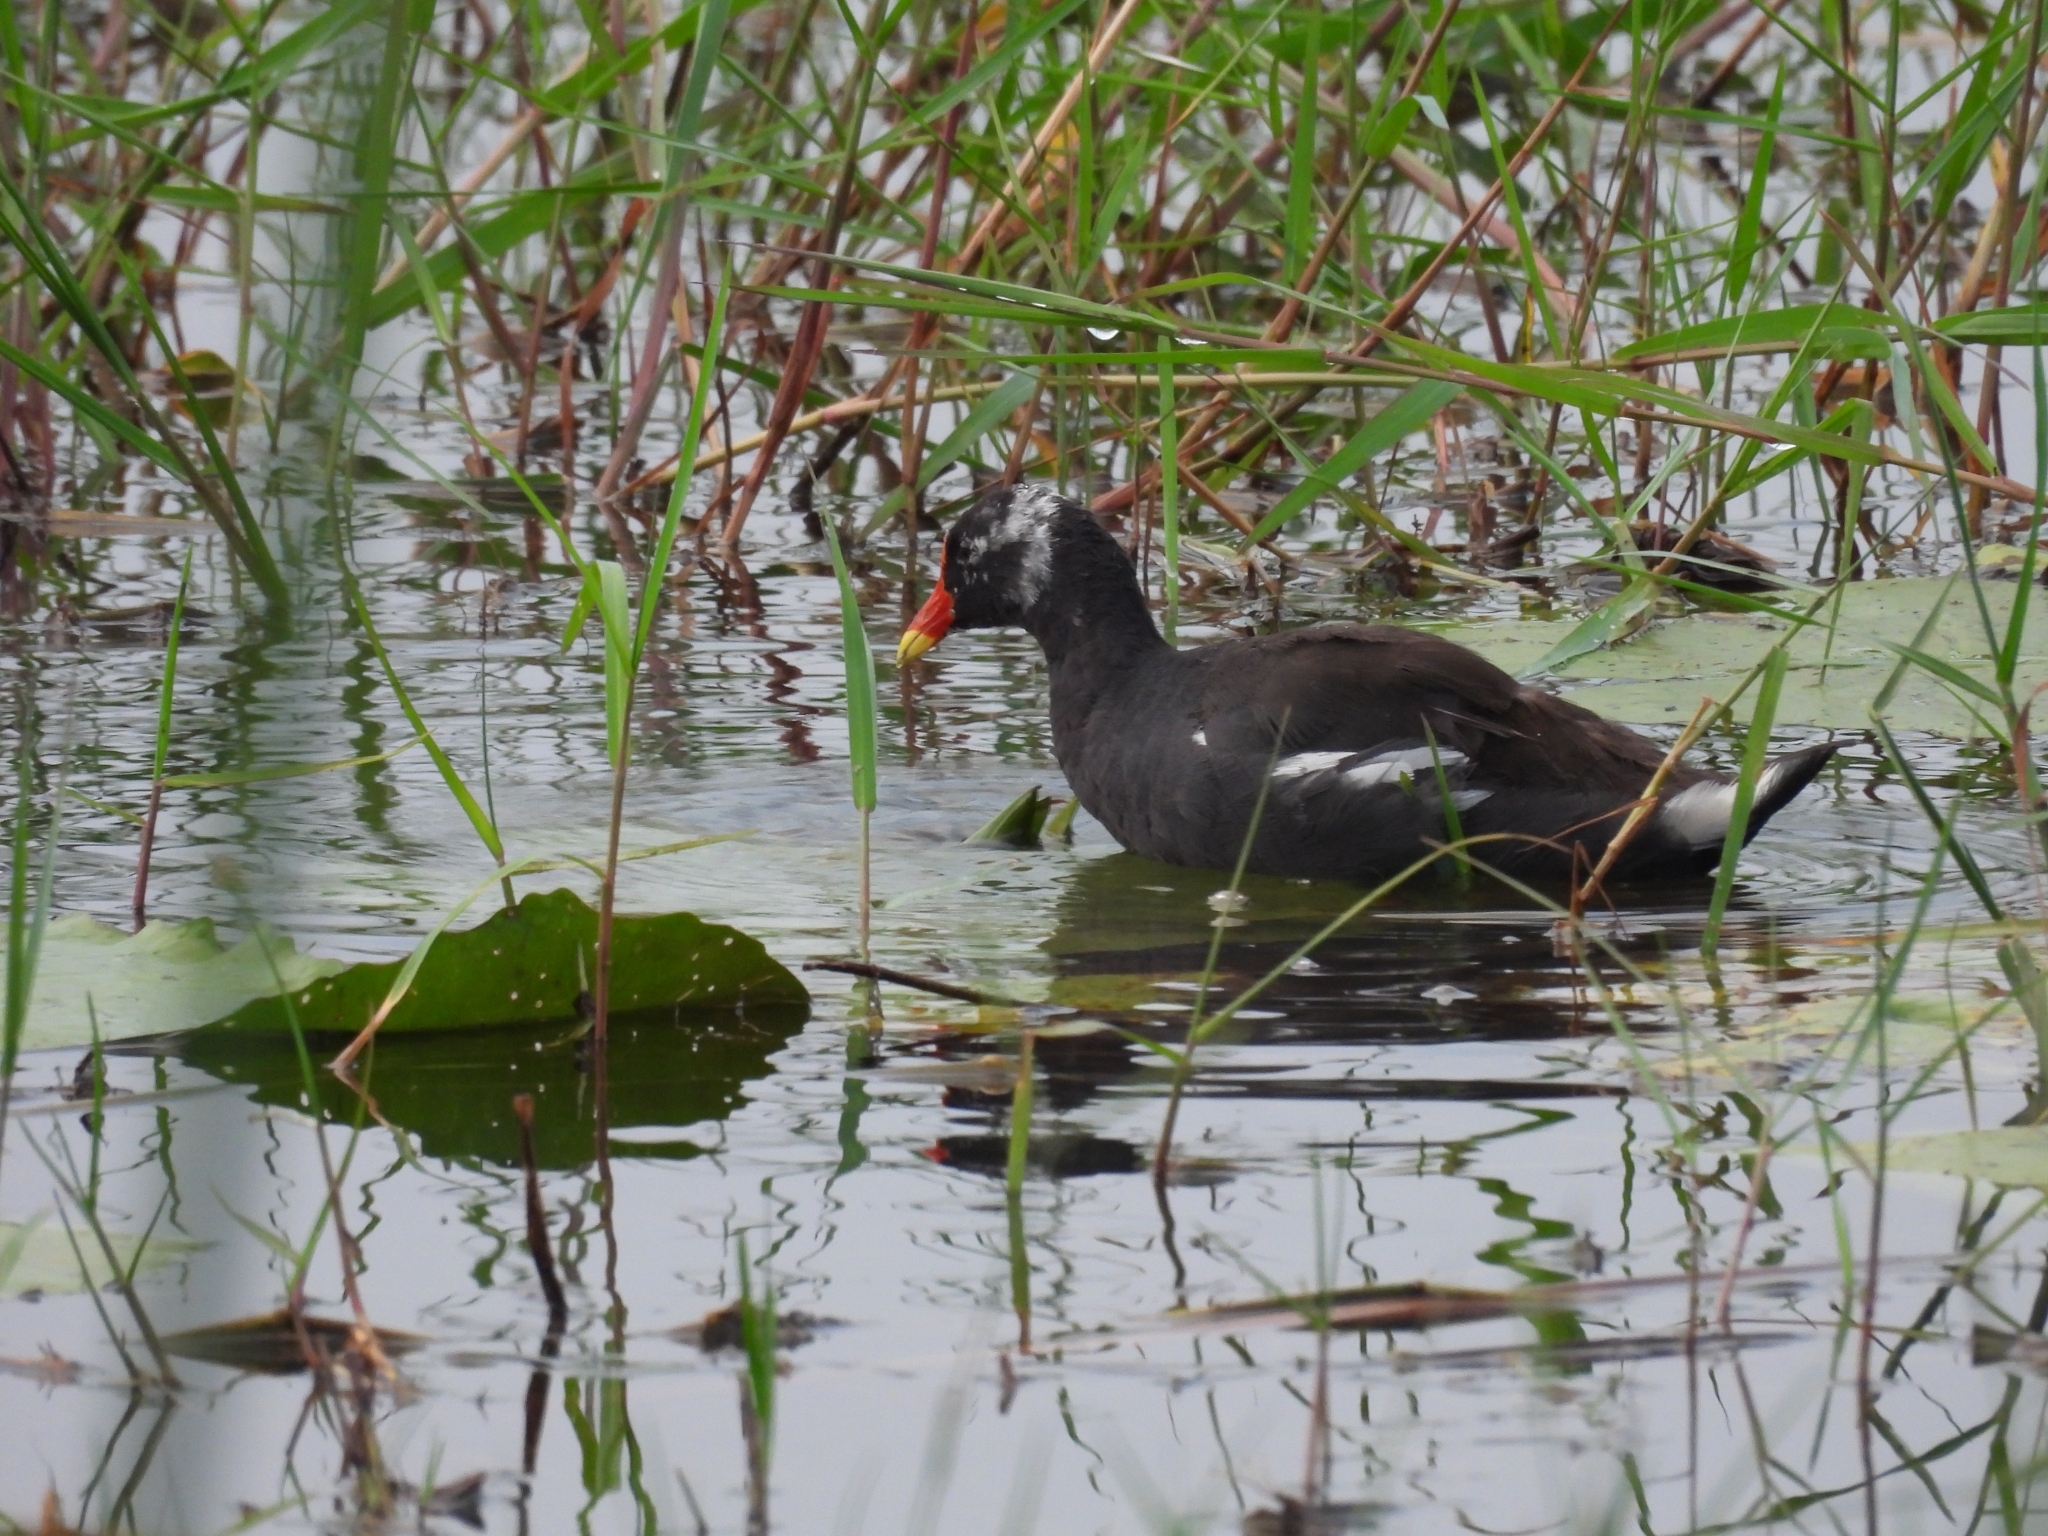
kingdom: Animalia
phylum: Chordata
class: Aves
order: Gruiformes
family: Rallidae
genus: Gallinula
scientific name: Gallinula chloropus
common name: Common moorhen
